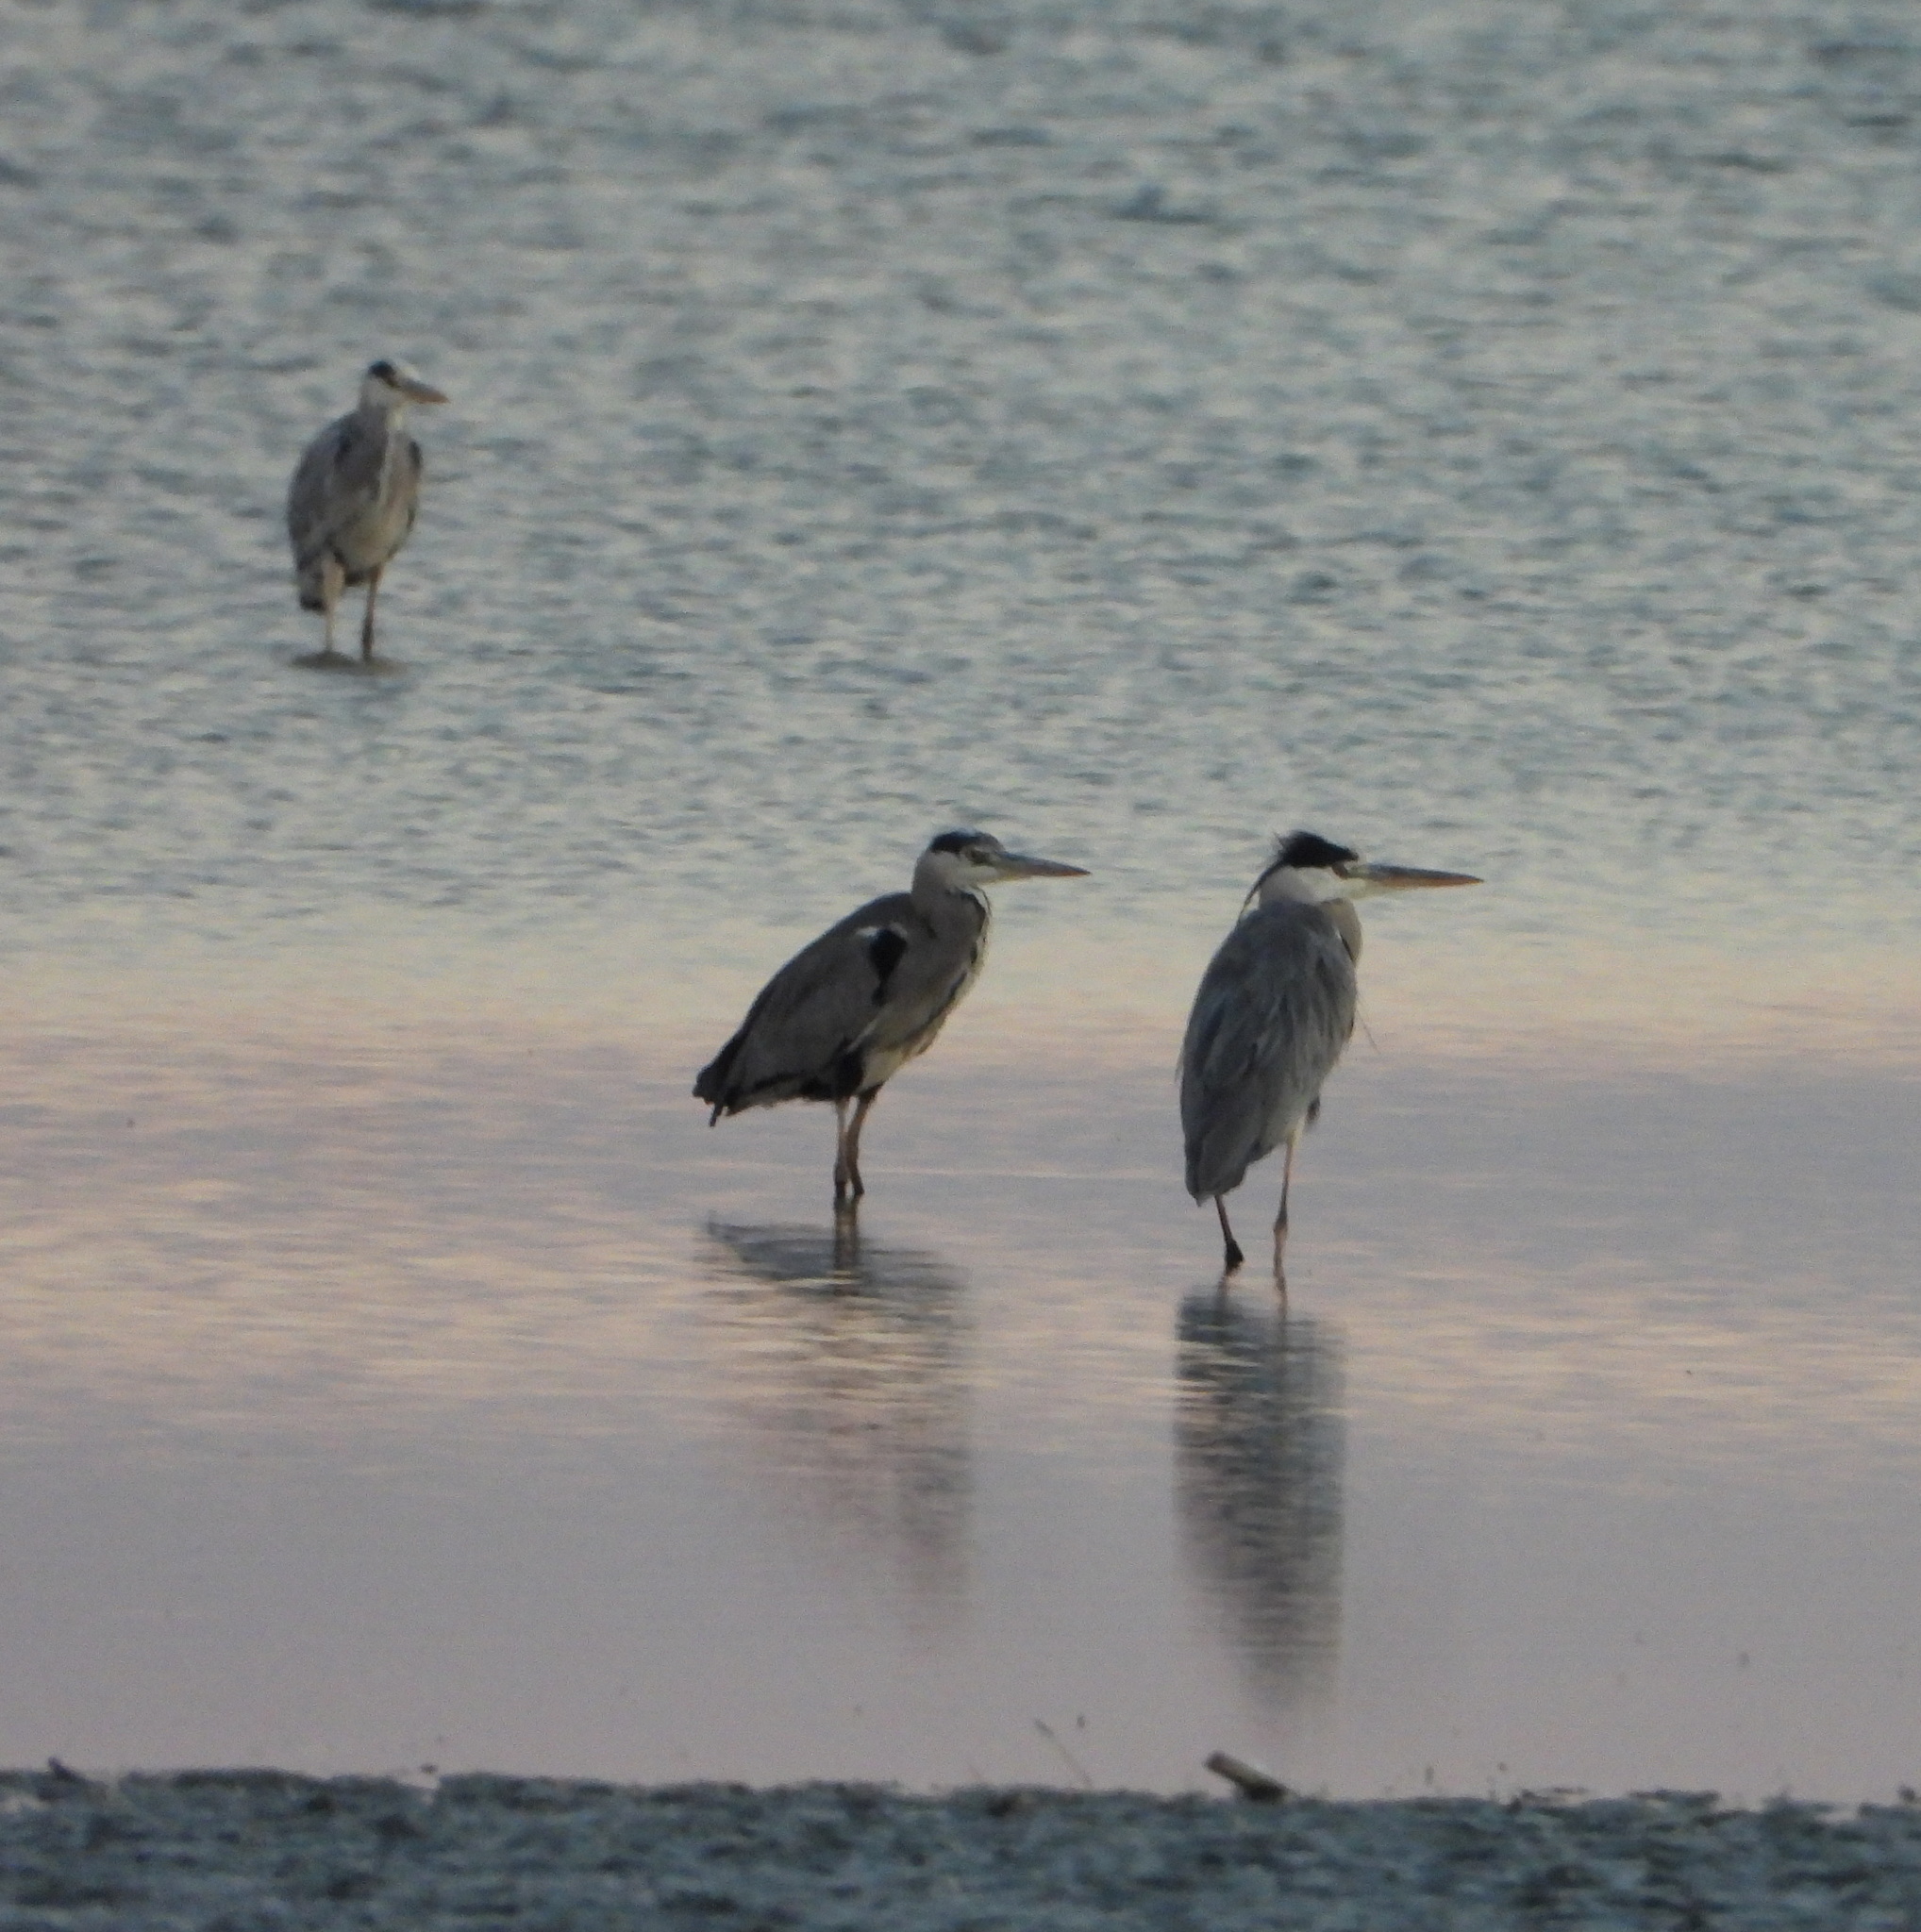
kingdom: Animalia
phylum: Chordata
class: Aves
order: Pelecaniformes
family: Ardeidae
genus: Ardea
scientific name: Ardea cinerea
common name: Grey heron
